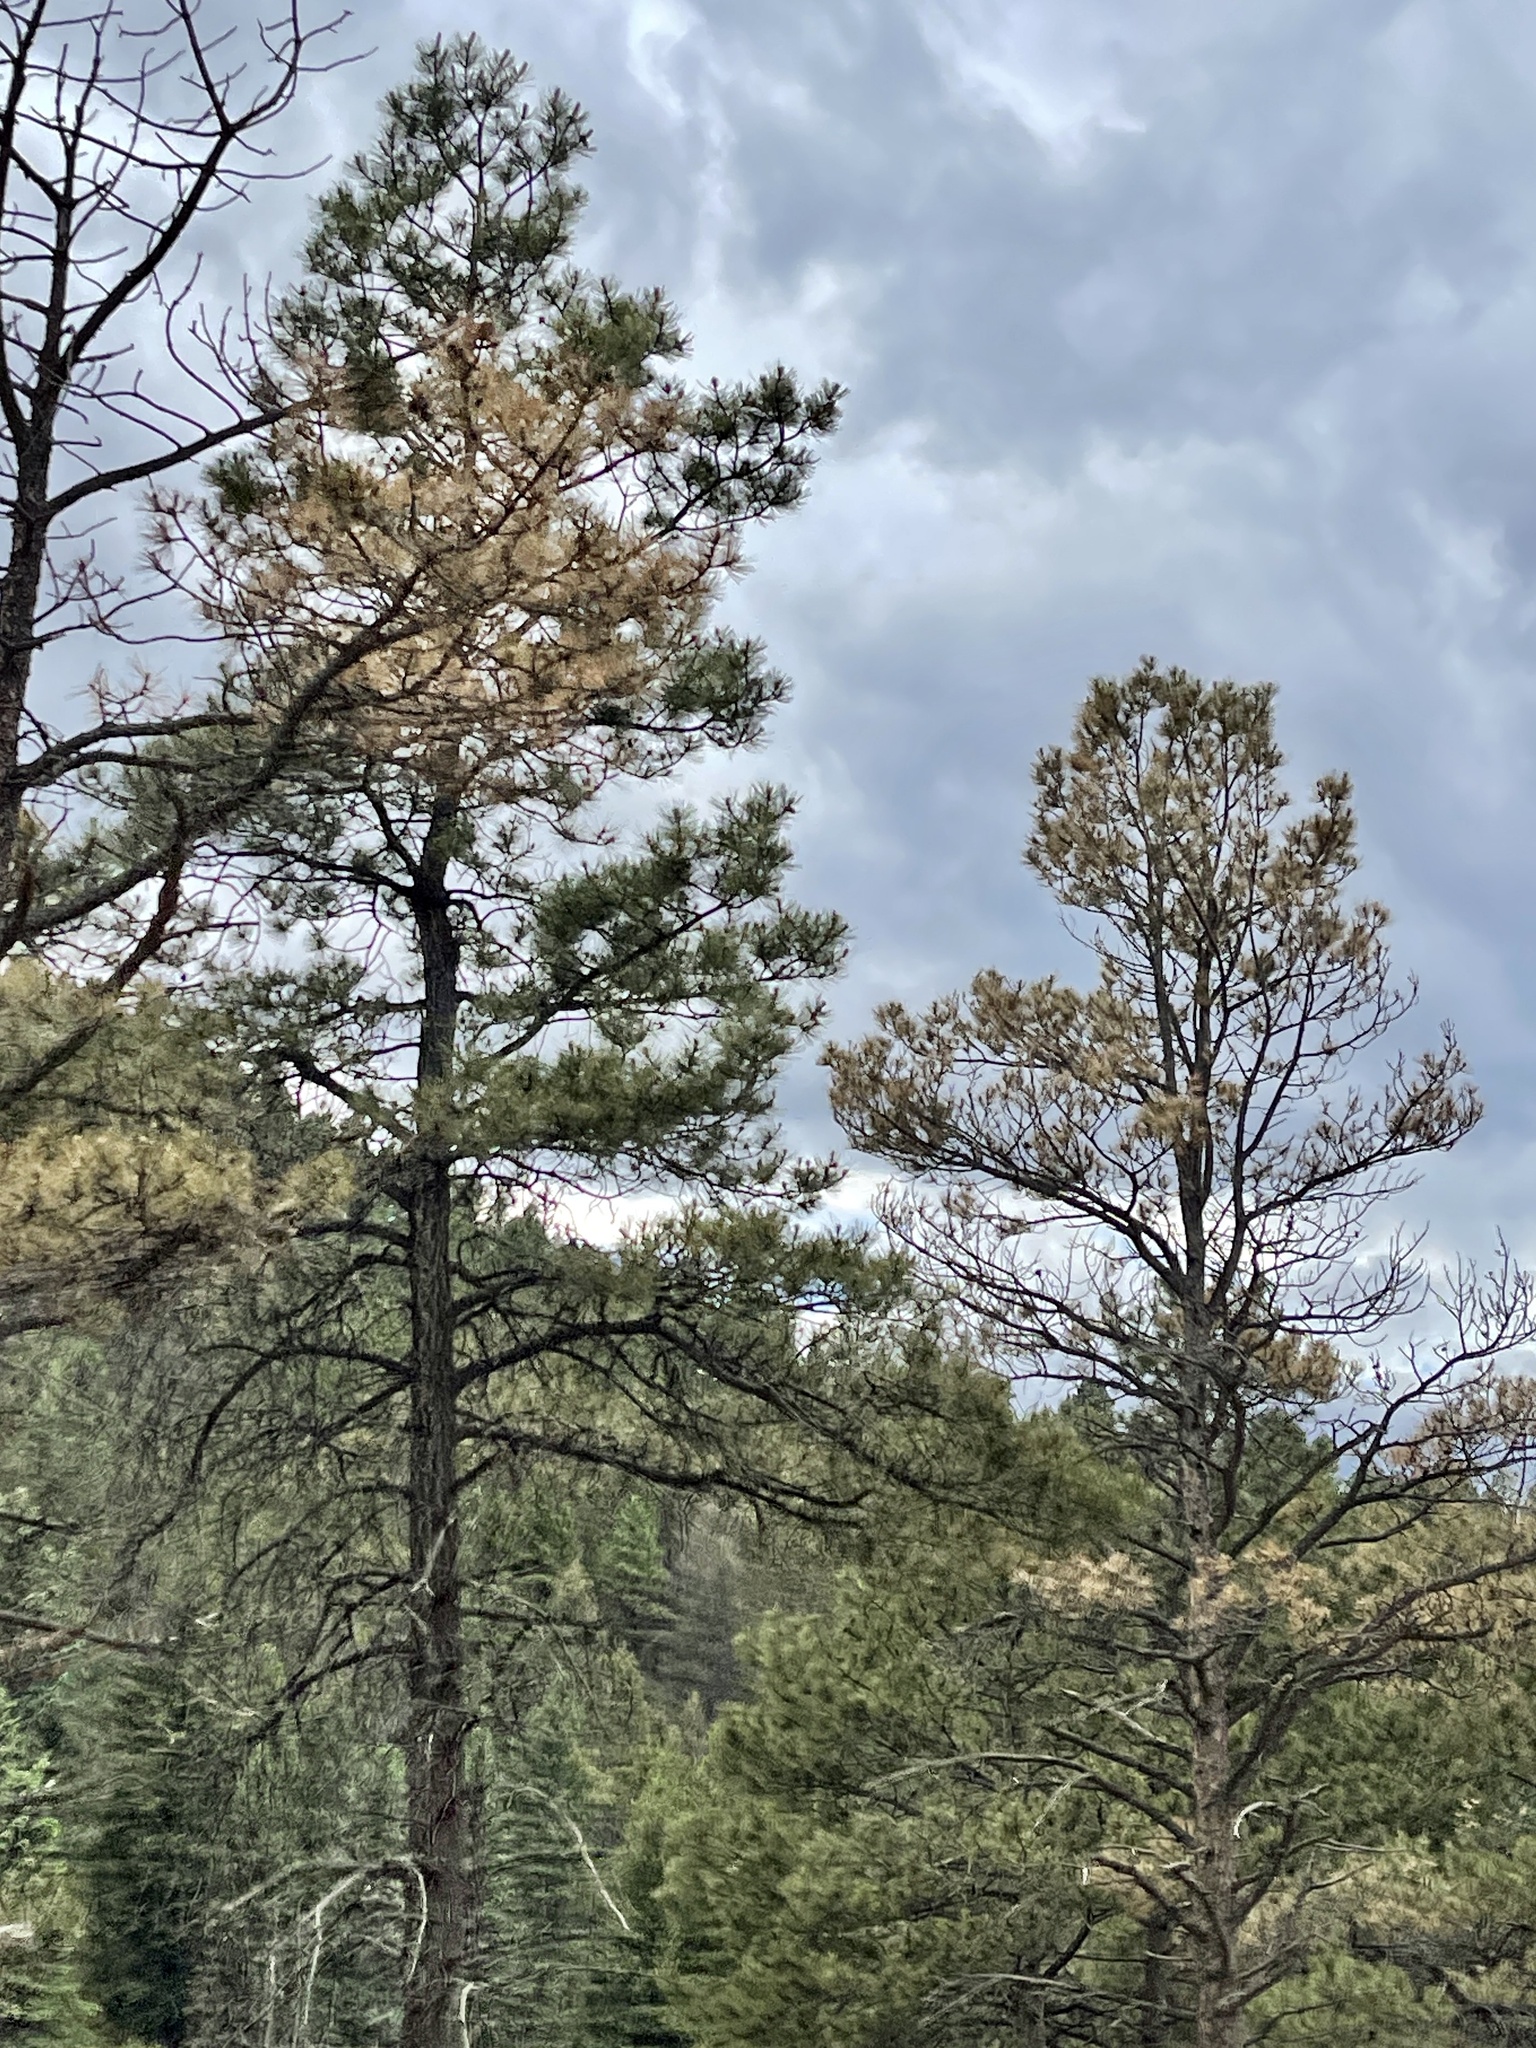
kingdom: Plantae
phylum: Tracheophyta
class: Pinopsida
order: Pinales
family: Pinaceae
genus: Pinus
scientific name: Pinus ponderosa
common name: Western yellow-pine
